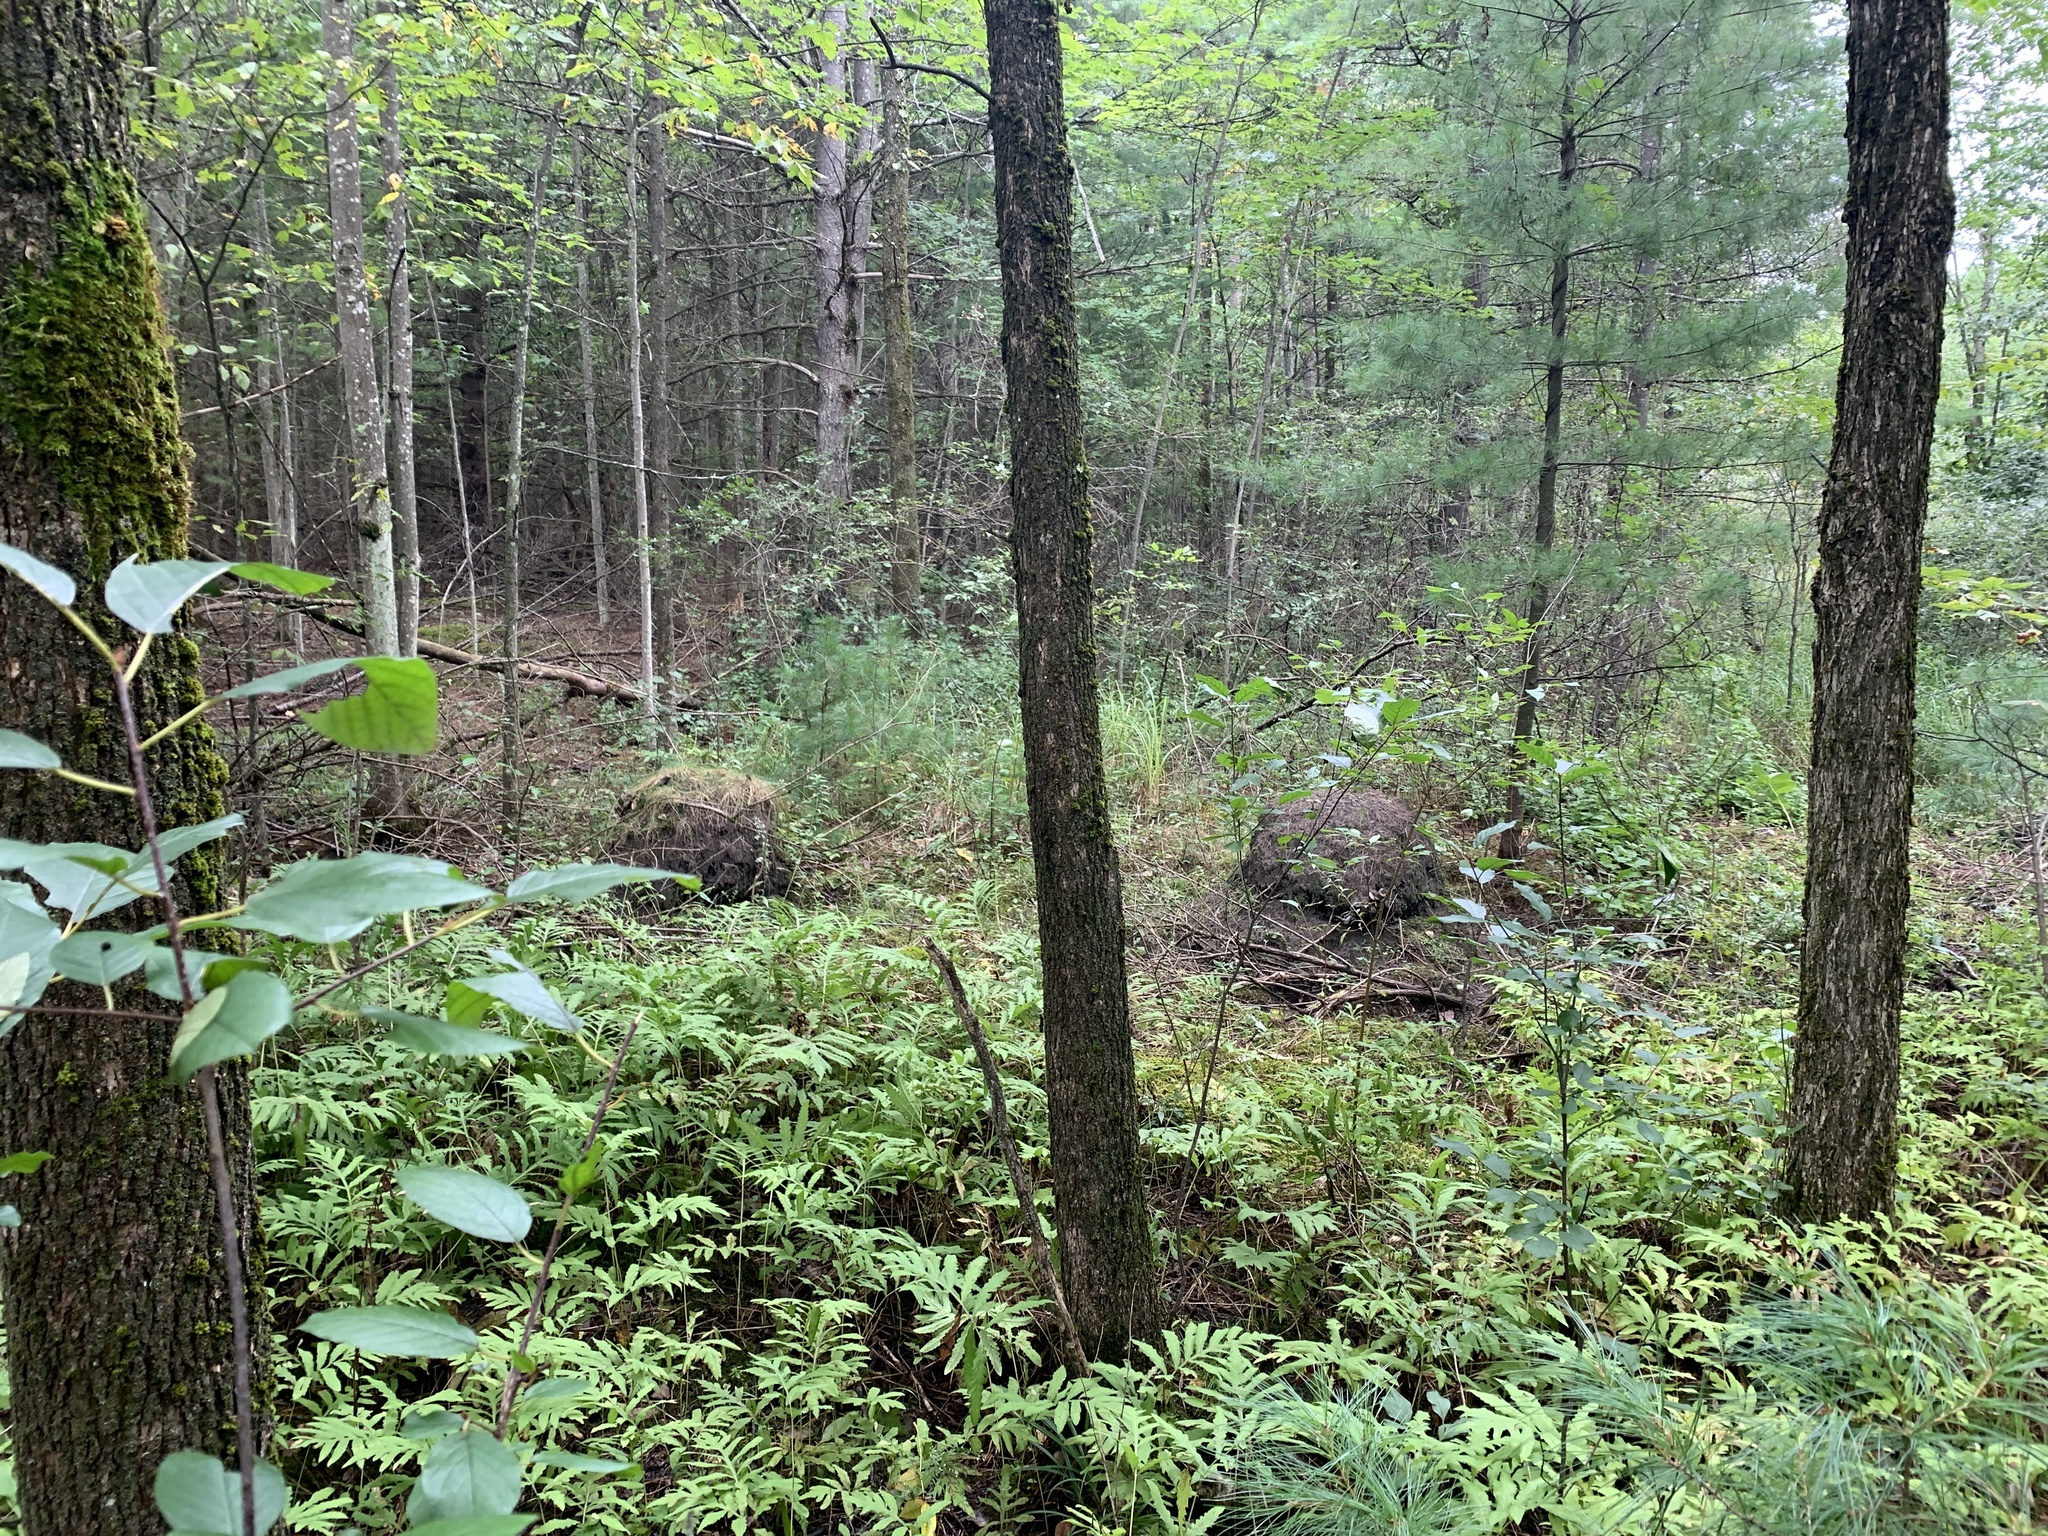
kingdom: Animalia
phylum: Arthropoda
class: Insecta
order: Hymenoptera
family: Formicidae
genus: Lasius
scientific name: Lasius minutus
